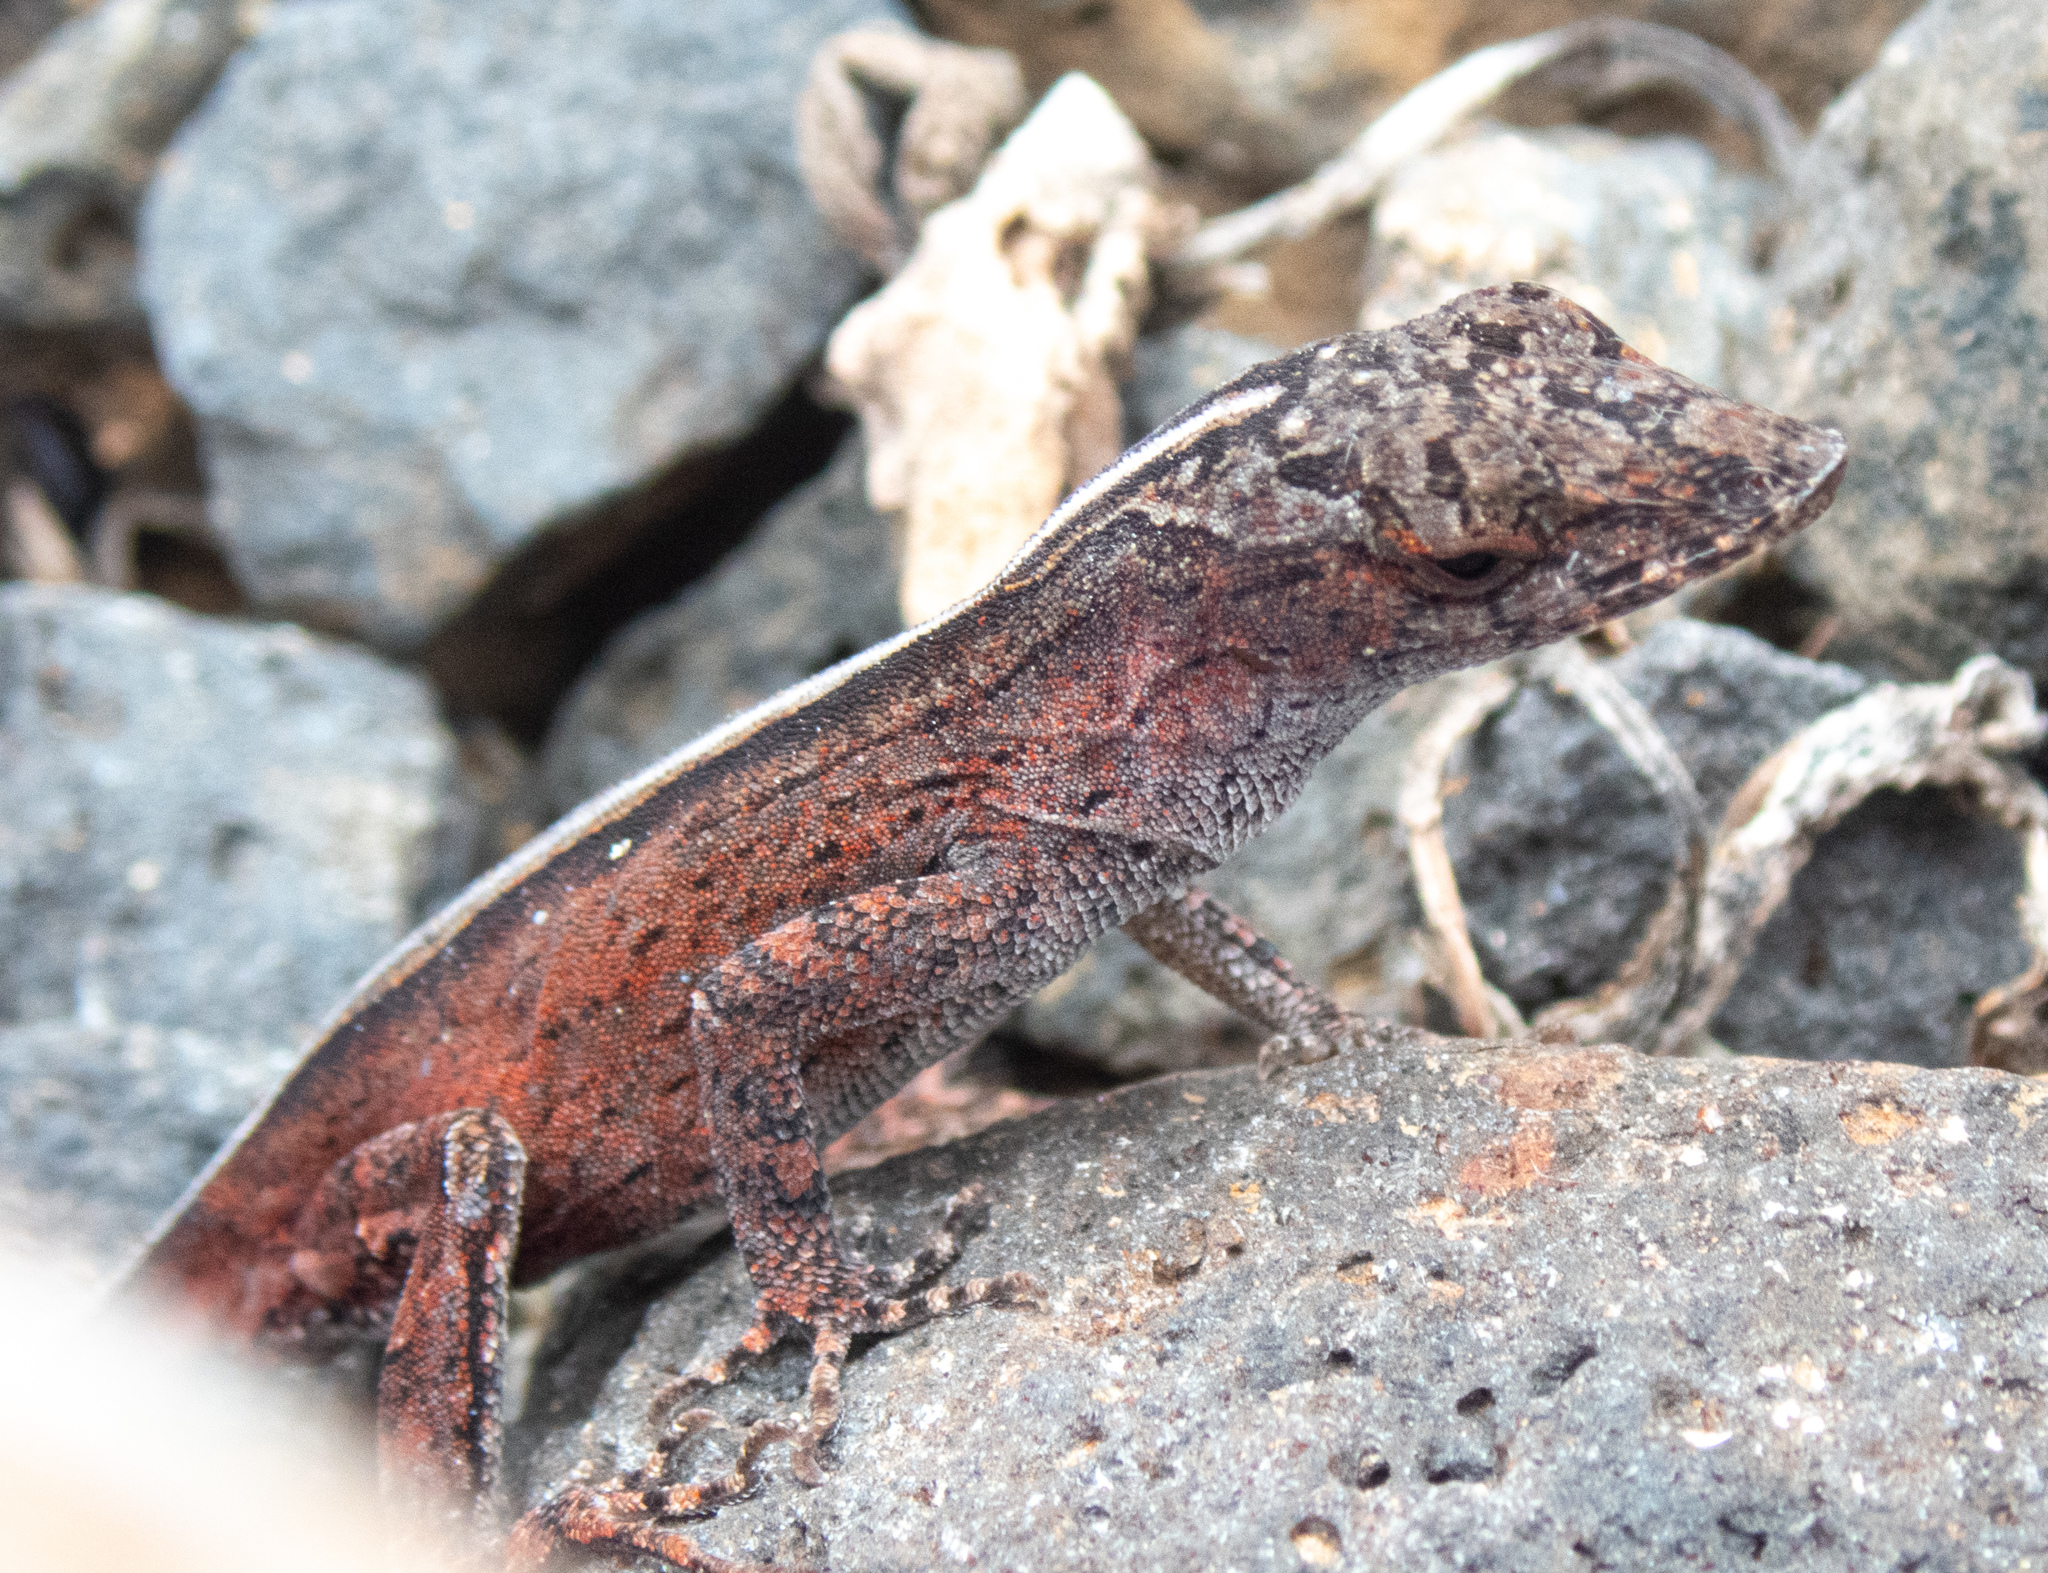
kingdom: Animalia
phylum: Chordata
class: Squamata
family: Dactyloidae
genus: Anolis
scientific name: Anolis sagrei
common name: Brown anole
